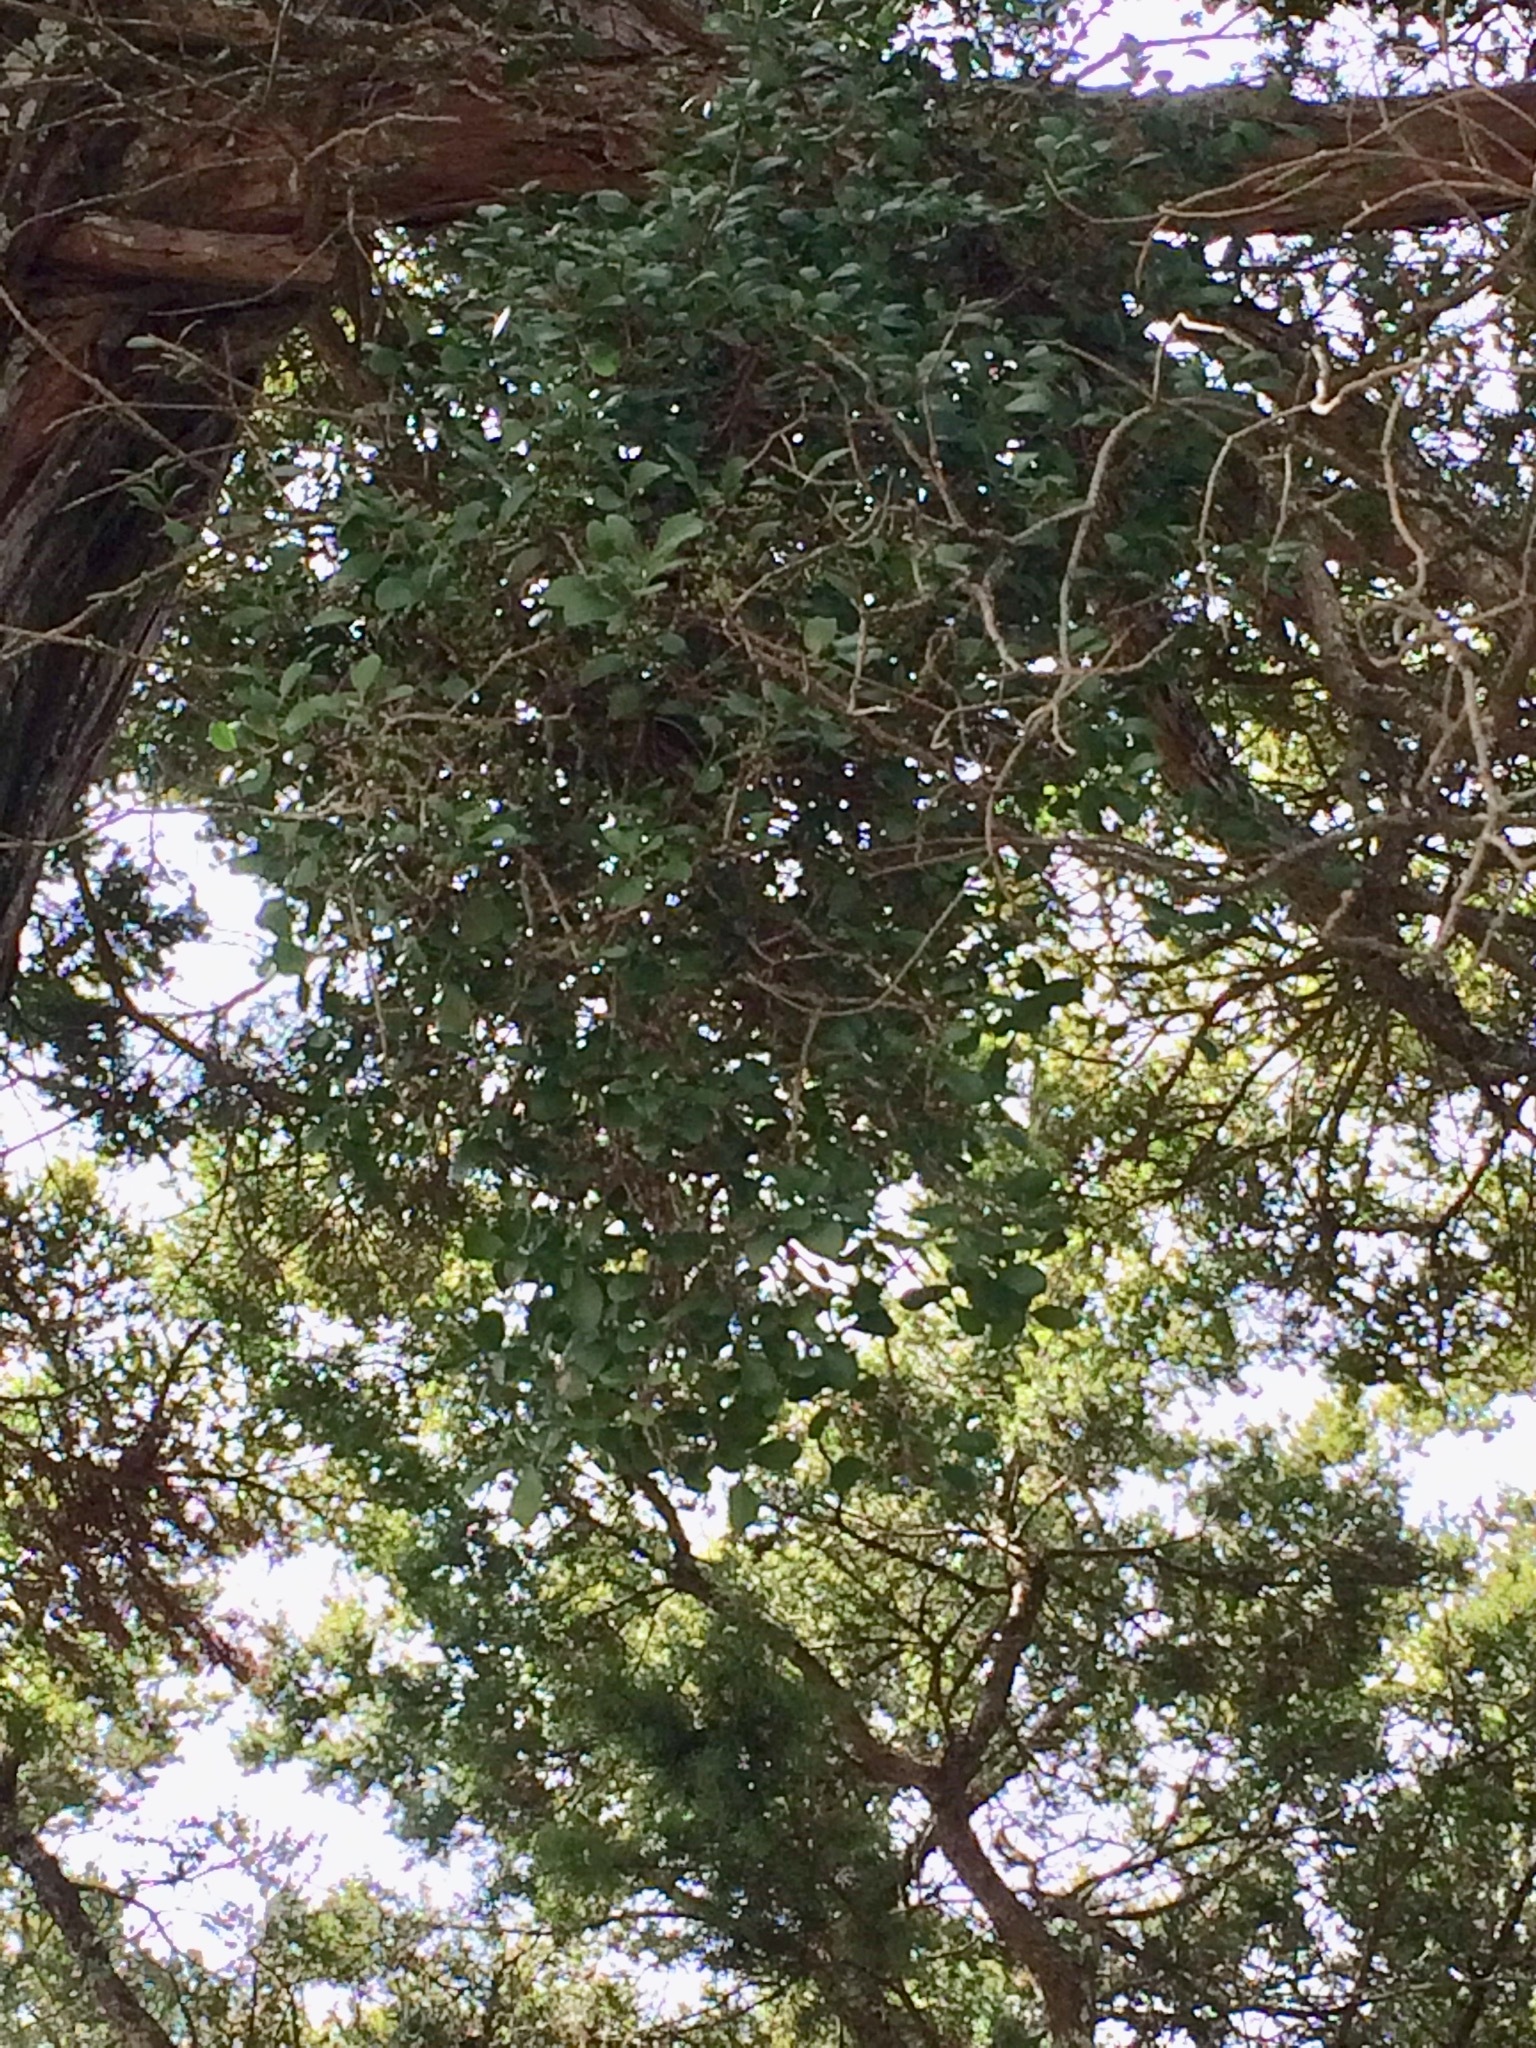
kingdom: Plantae
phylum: Tracheophyta
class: Magnoliopsida
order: Santalales
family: Loranthaceae
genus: Ileostylus
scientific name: Ileostylus micranthus
